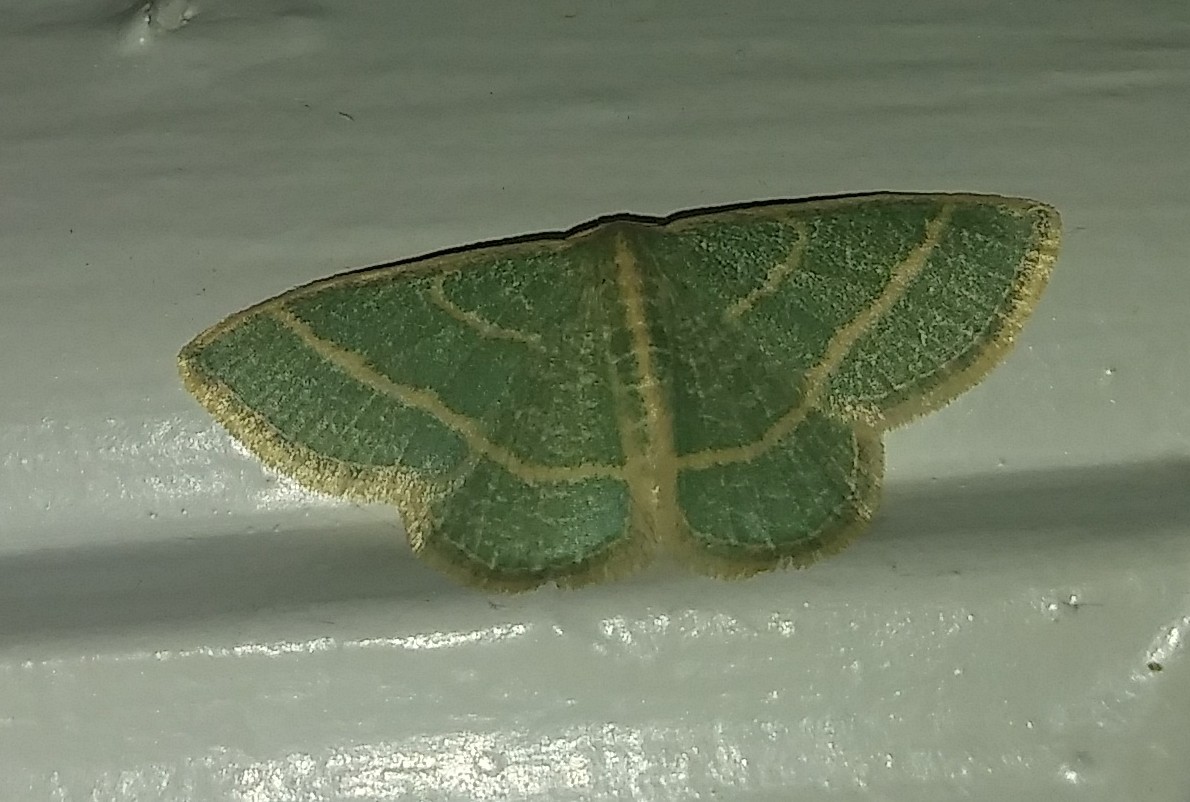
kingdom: Animalia
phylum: Arthropoda
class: Insecta
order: Lepidoptera
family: Geometridae
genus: Chlorochlamys
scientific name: Chlorochlamys chloroleucaria
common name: Blackberry looper
